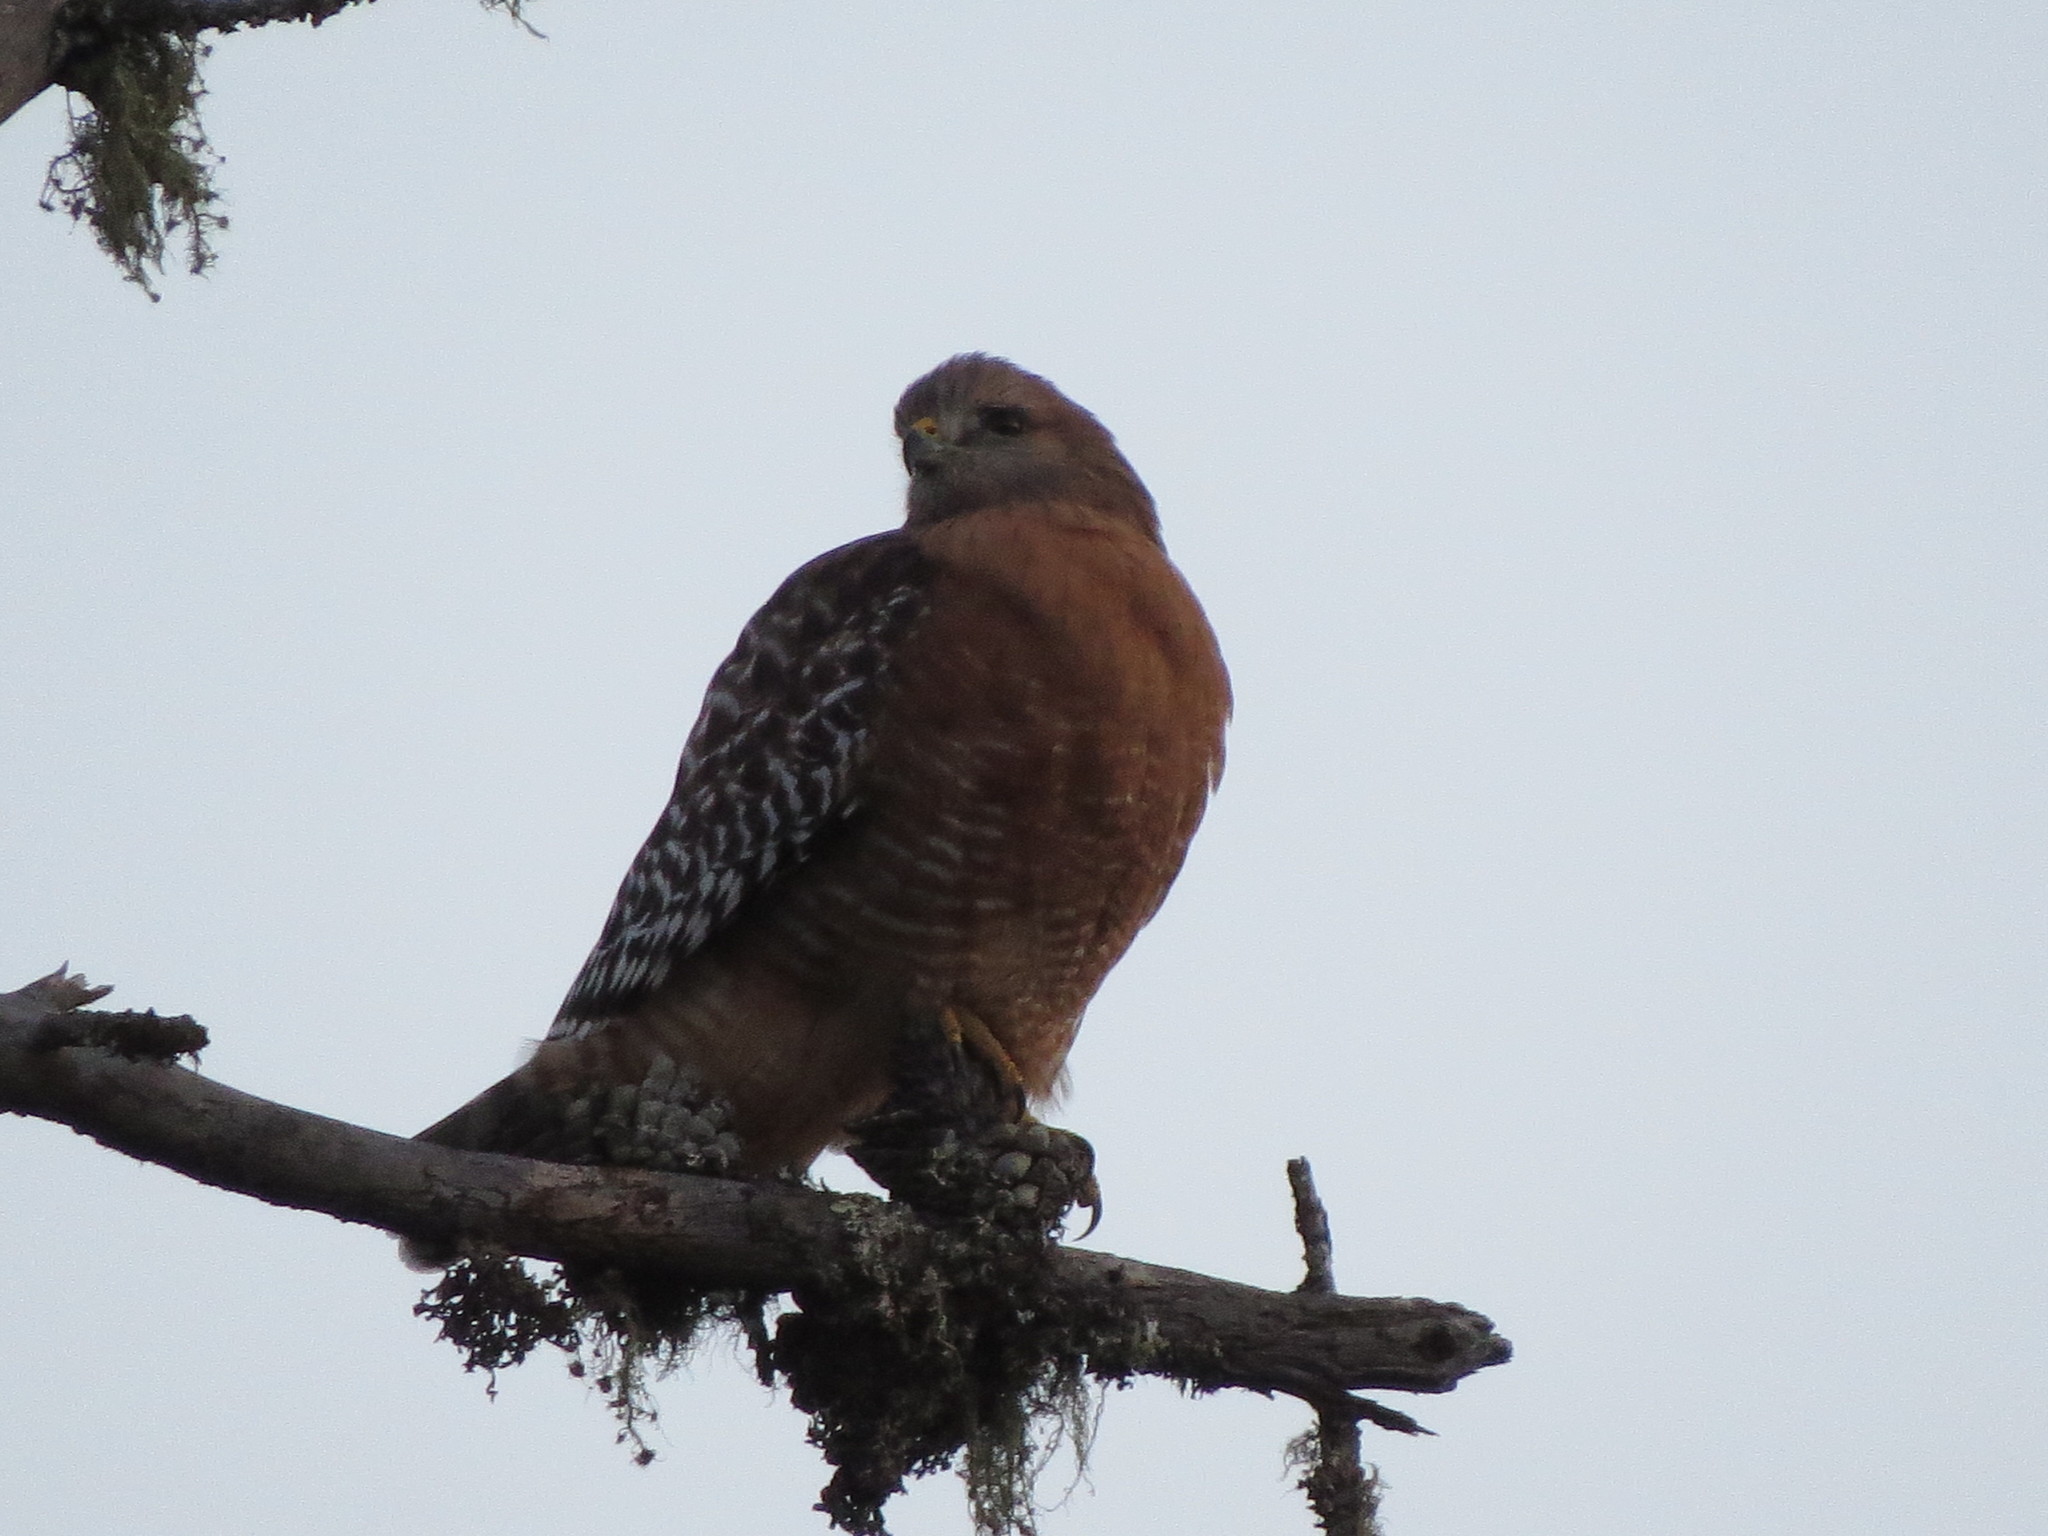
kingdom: Animalia
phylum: Chordata
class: Aves
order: Accipitriformes
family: Accipitridae
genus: Buteo
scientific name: Buteo lineatus
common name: Red-shouldered hawk
